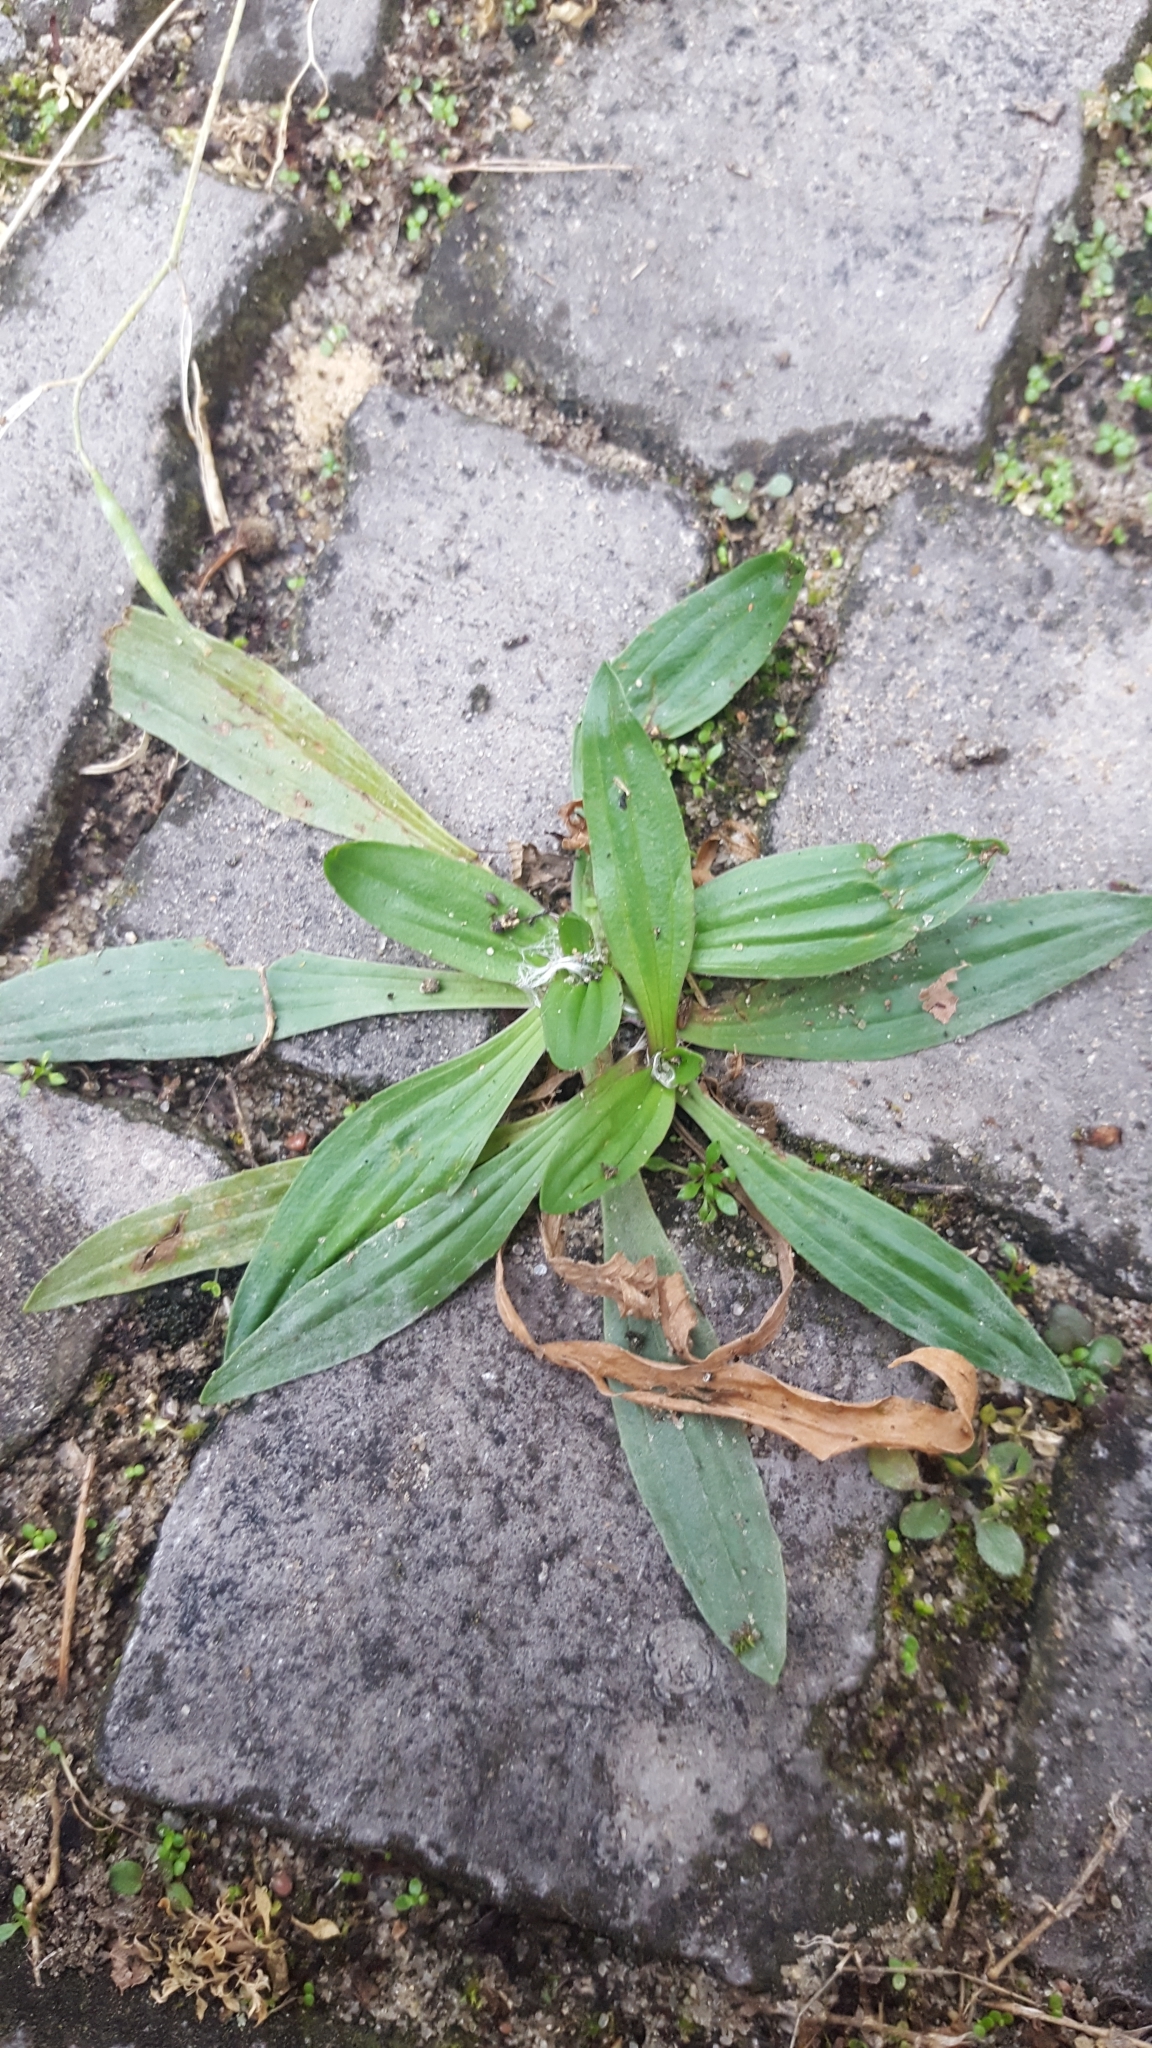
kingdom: Plantae
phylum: Tracheophyta
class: Magnoliopsida
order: Lamiales
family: Plantaginaceae
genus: Plantago
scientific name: Plantago lanceolata
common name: Ribwort plantain
